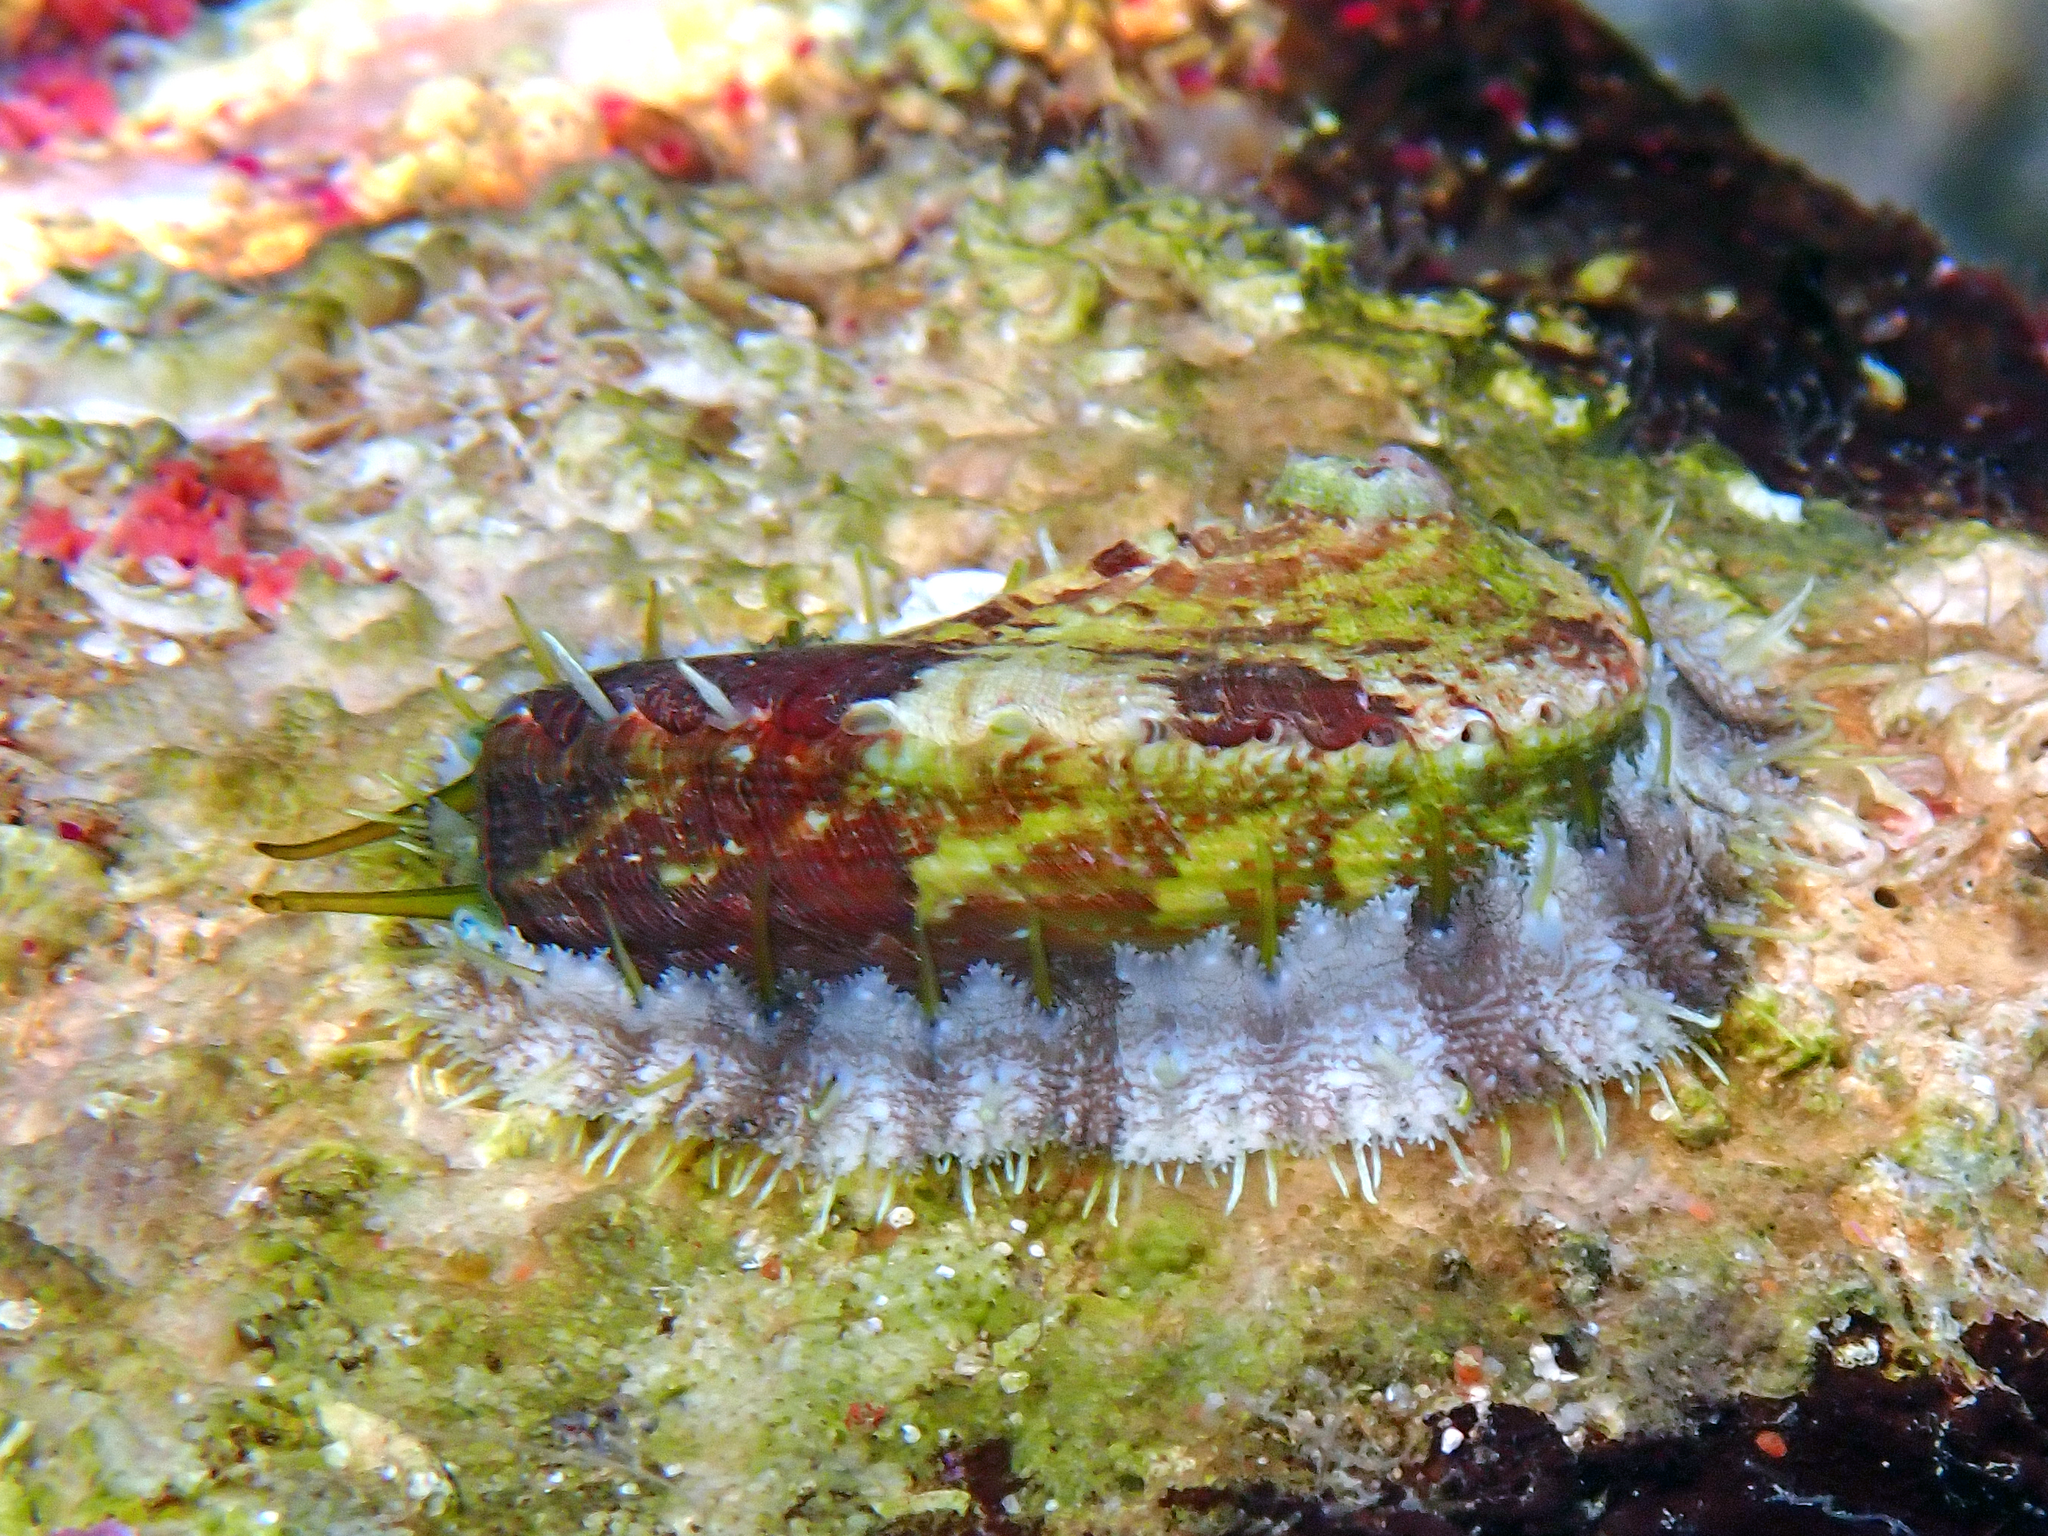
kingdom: Animalia
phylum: Mollusca
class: Gastropoda
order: Lepetellida
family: Haliotidae
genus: Haliotis
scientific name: Haliotis tuberculata
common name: Green ormer
